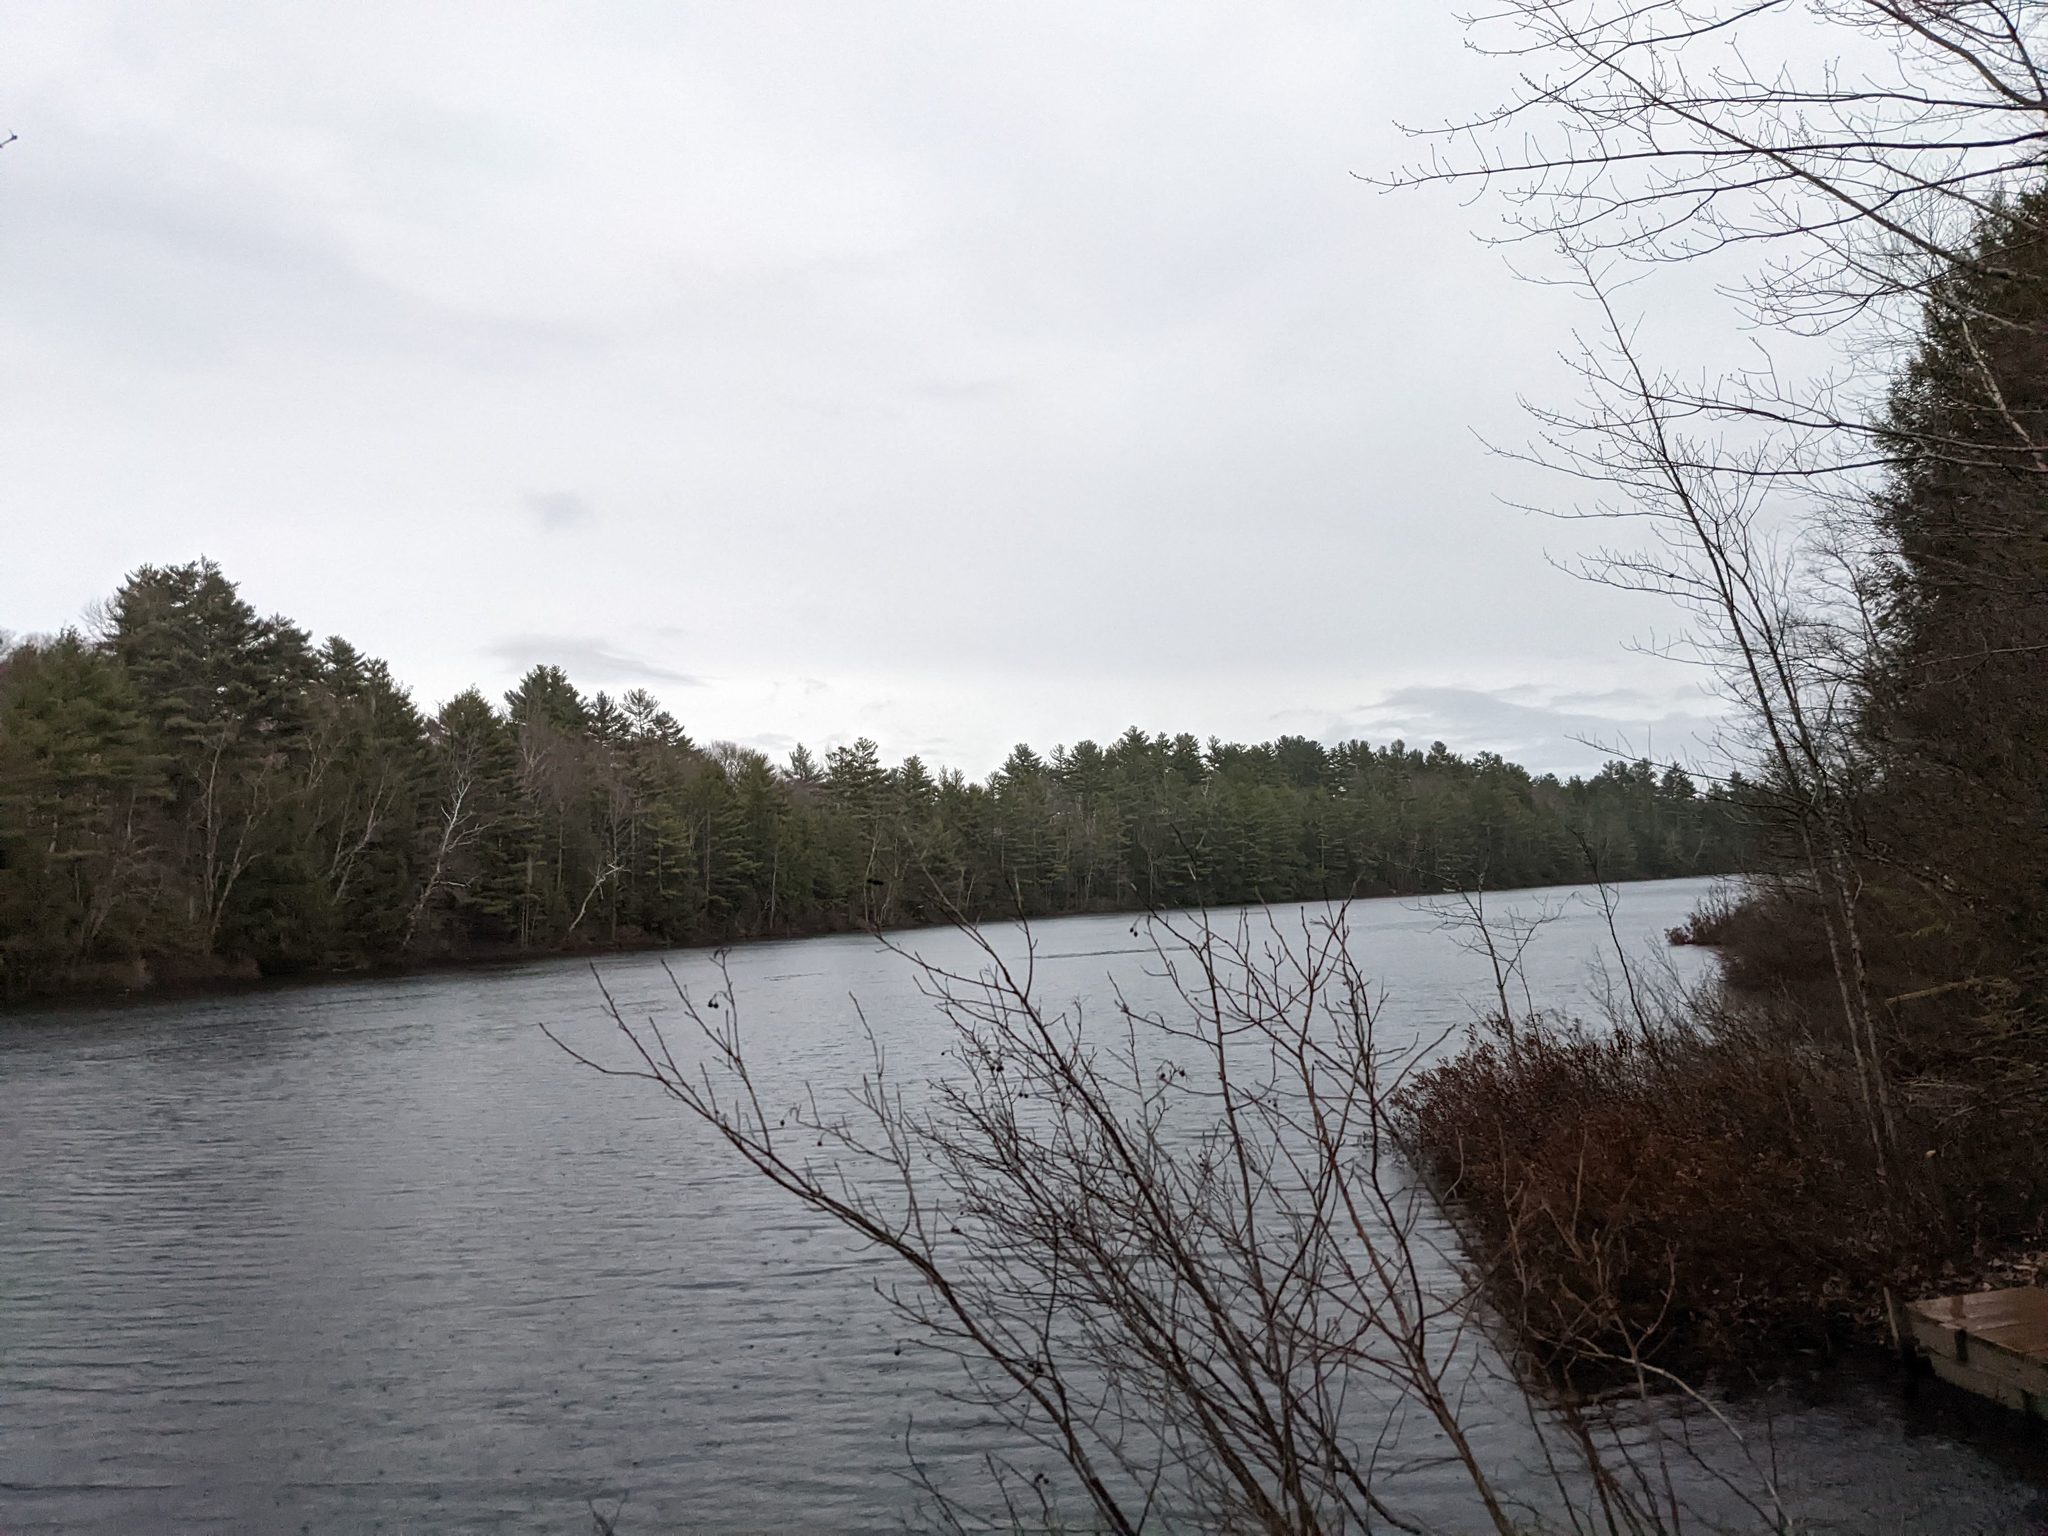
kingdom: Plantae
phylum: Tracheophyta
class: Pinopsida
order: Pinales
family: Pinaceae
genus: Pinus
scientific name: Pinus strobus
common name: Weymouth pine
